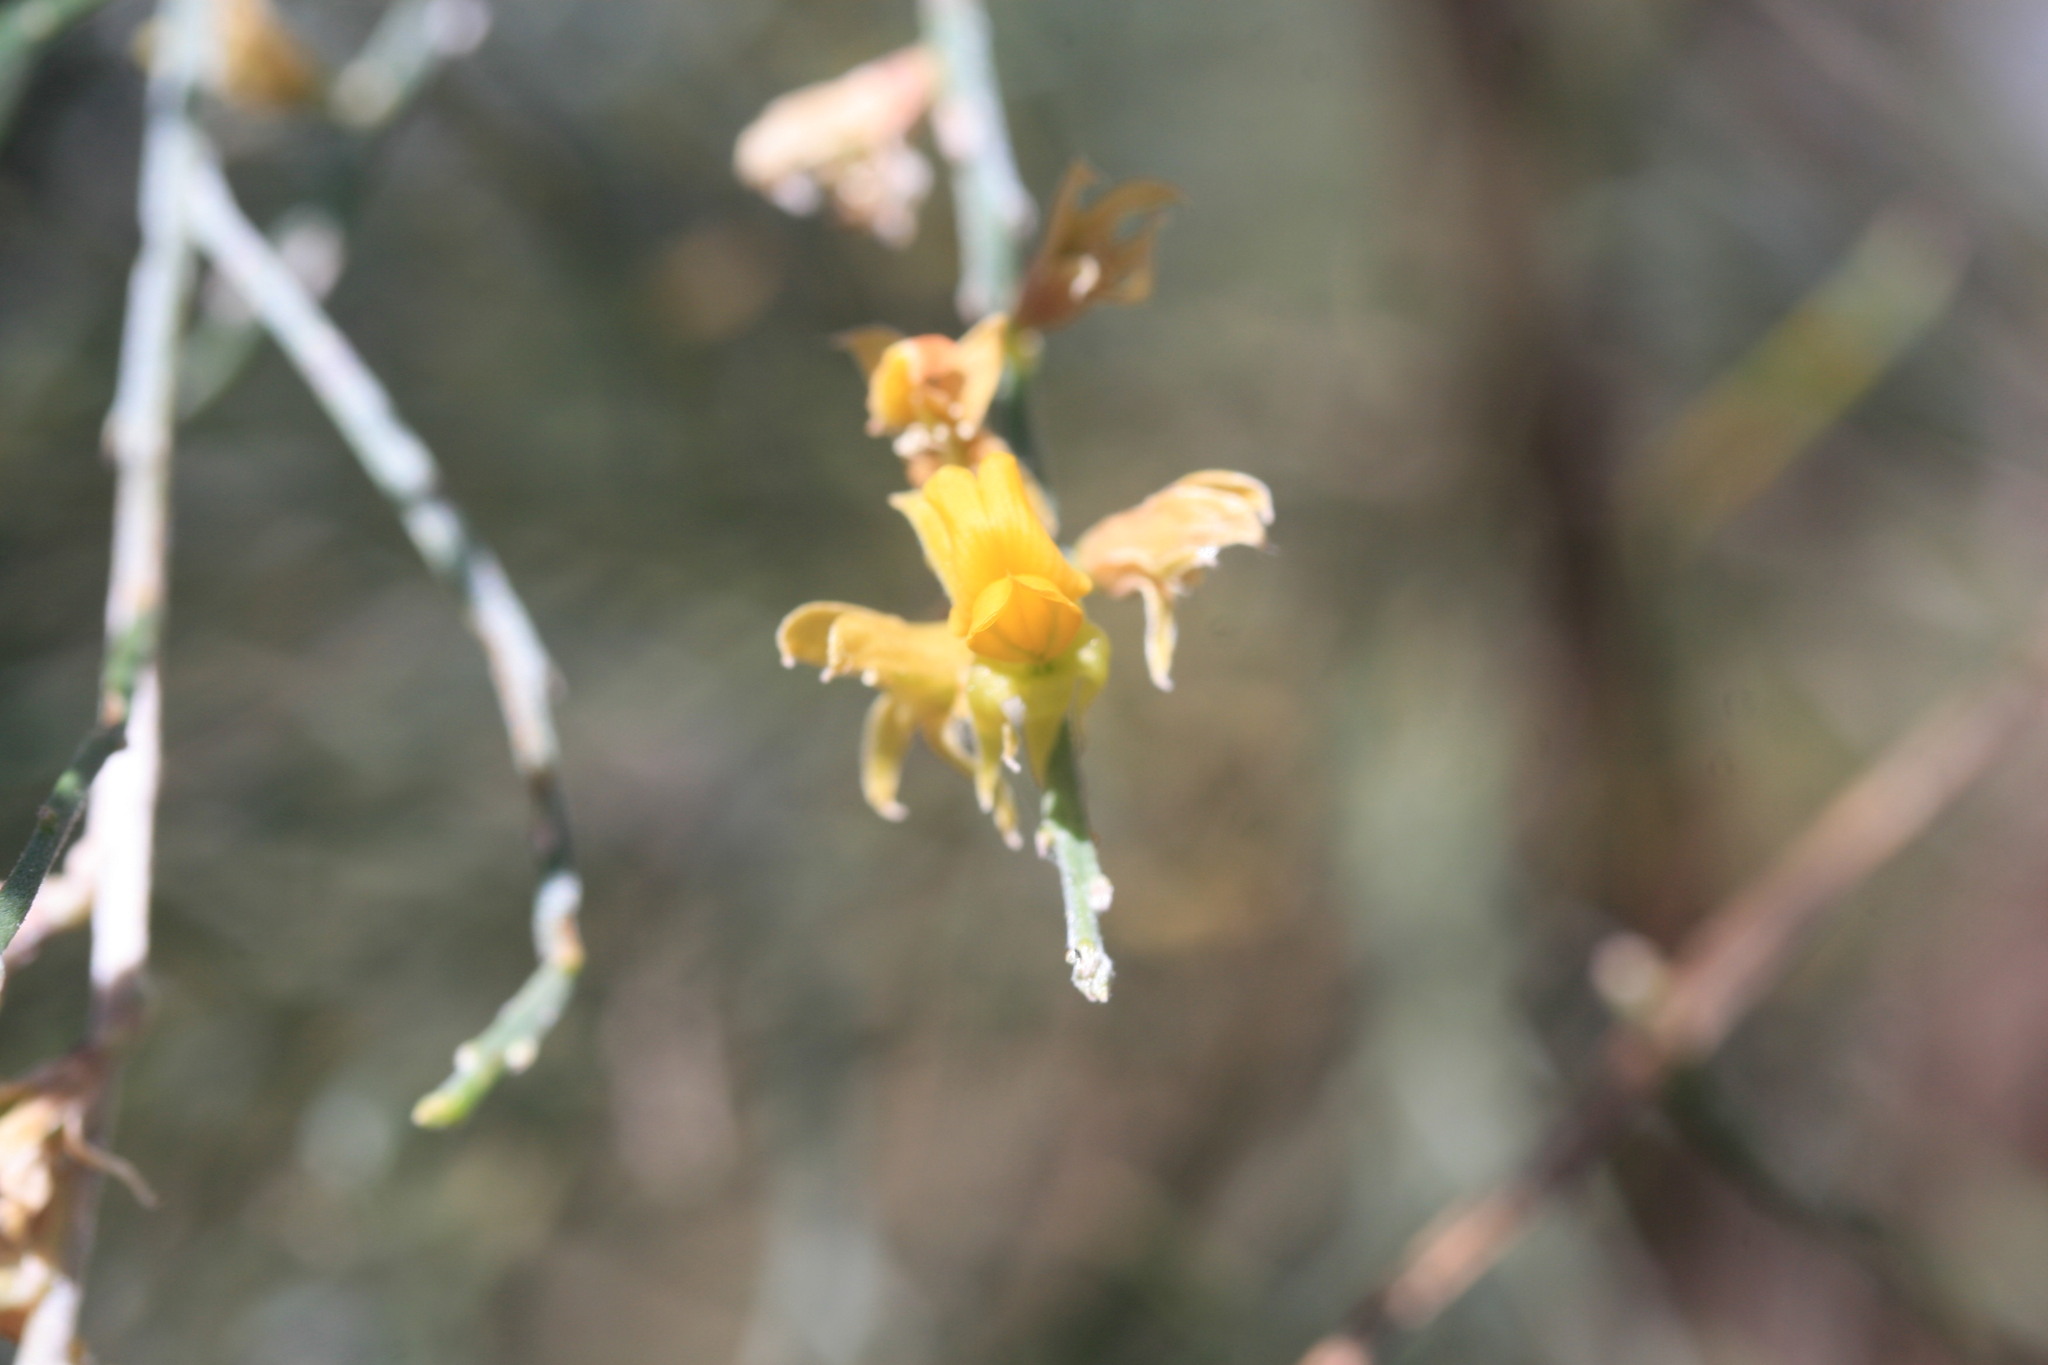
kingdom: Plantae
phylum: Tracheophyta
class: Magnoliopsida
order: Fabales
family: Fabaceae
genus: Jacksonia
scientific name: Jacksonia forrestii
